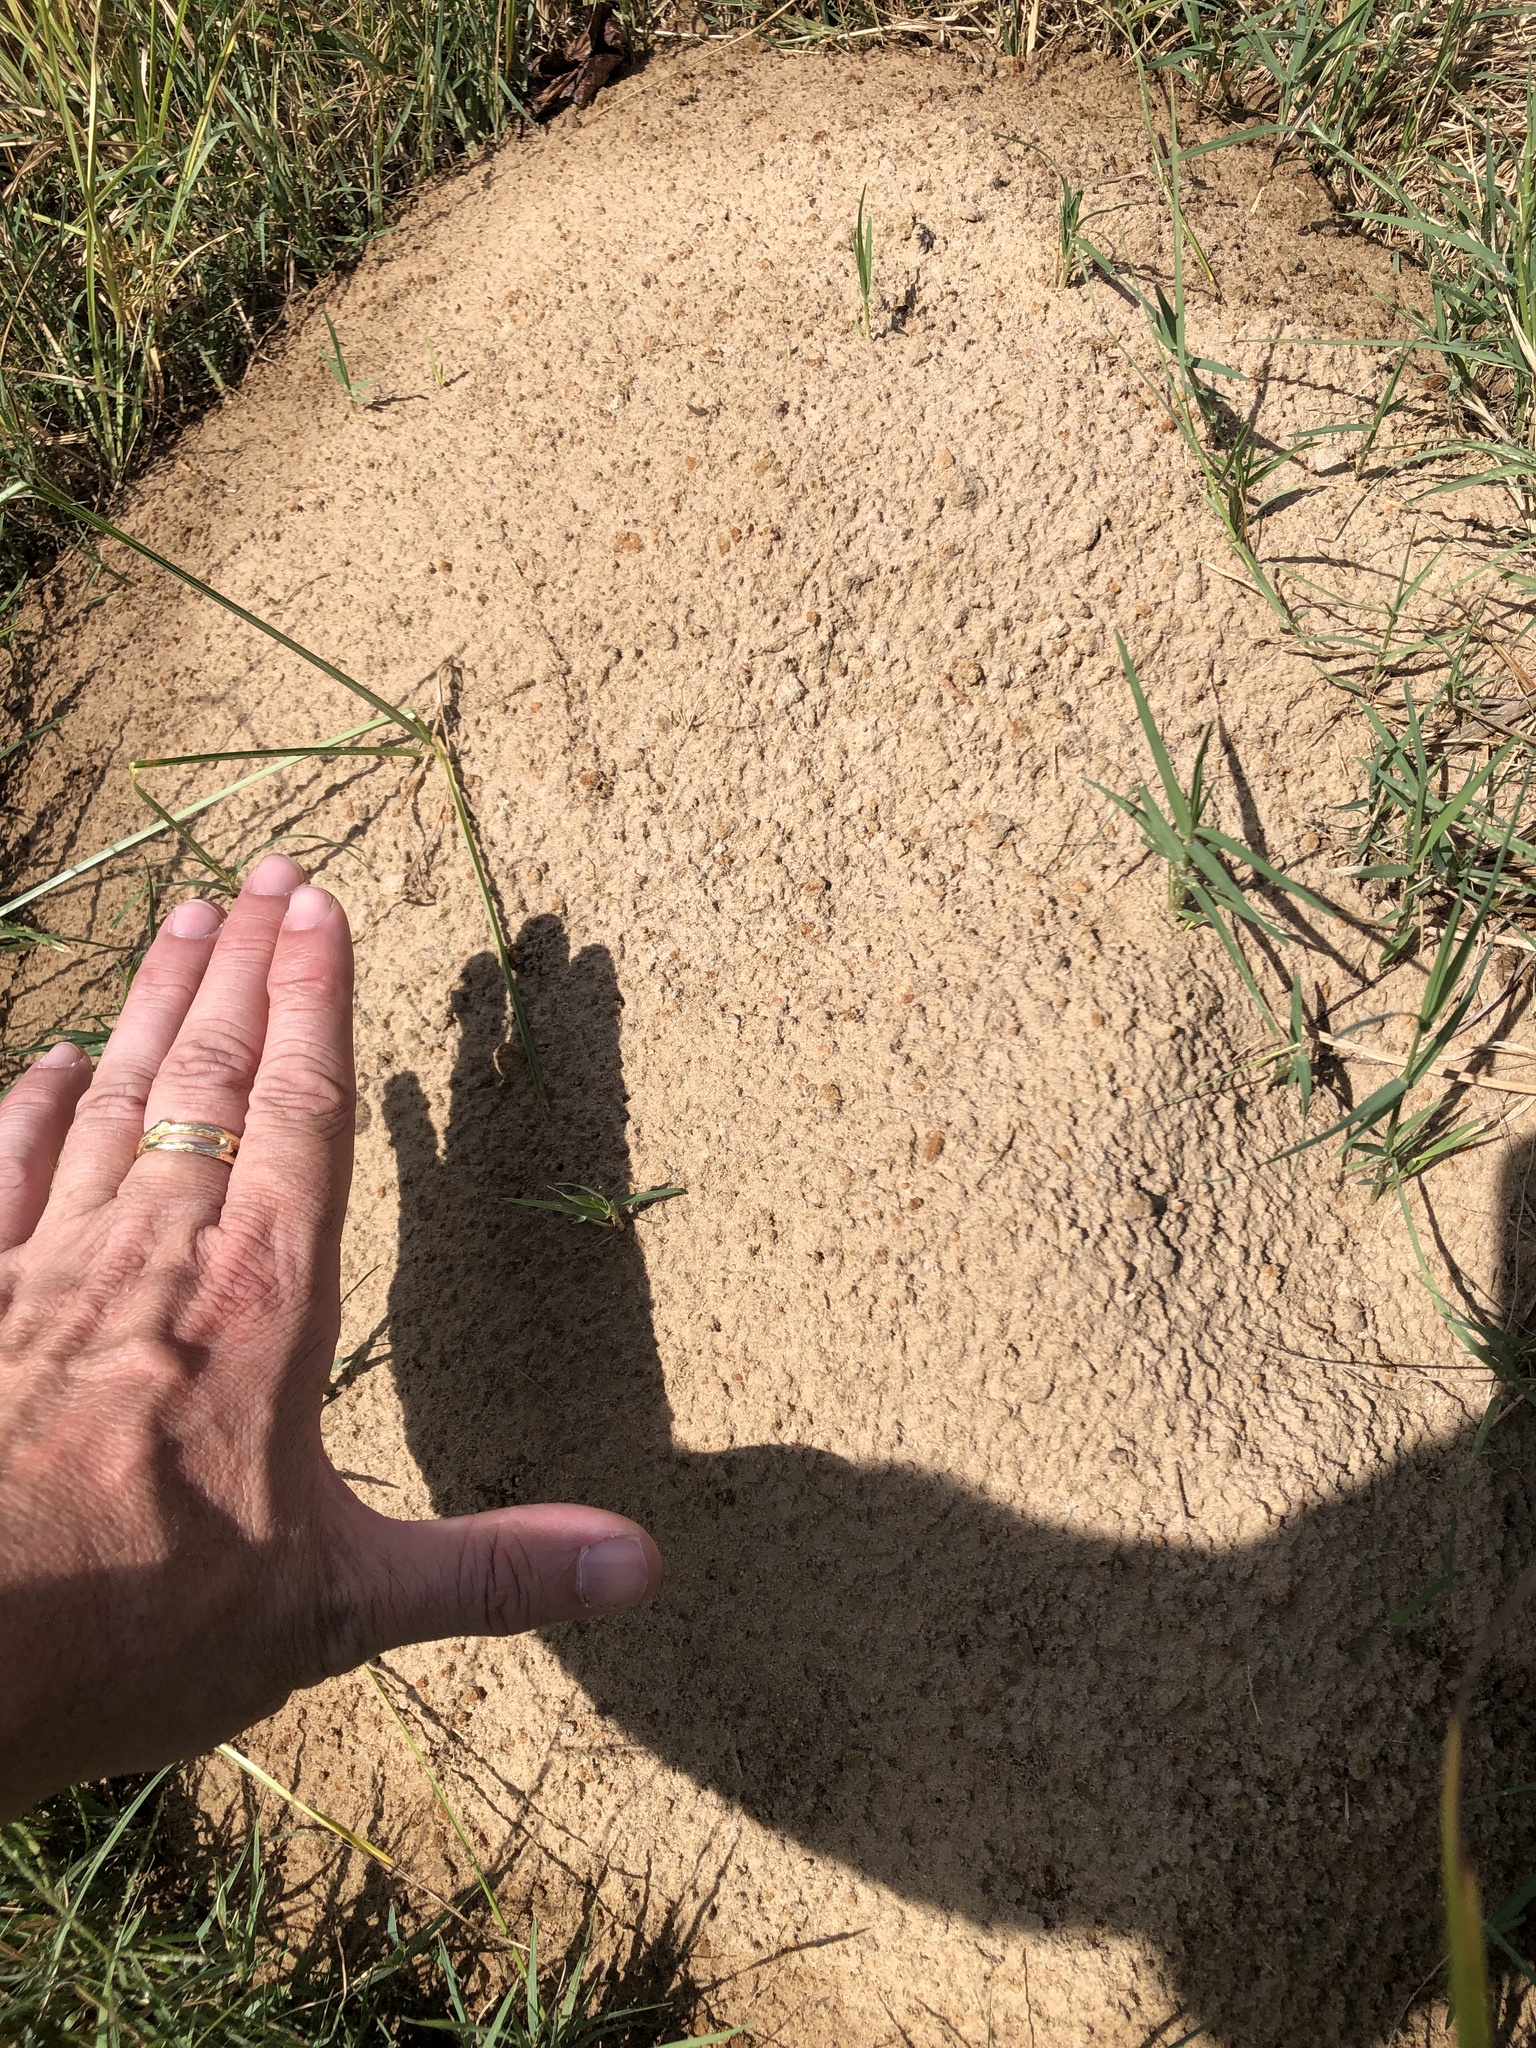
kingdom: Animalia
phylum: Chordata
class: Mammalia
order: Rodentia
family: Geomyidae
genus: Geomys
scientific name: Geomys breviceps
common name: Baird's pocket gopher
